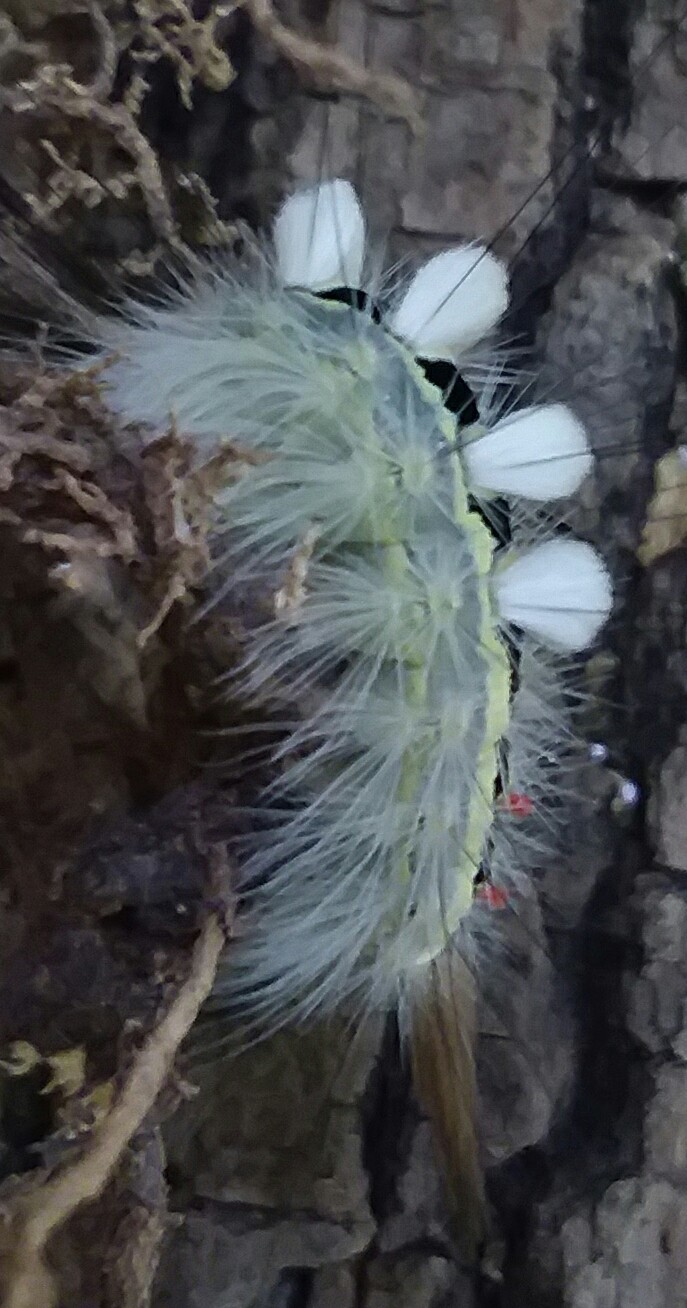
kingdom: Animalia
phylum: Arthropoda
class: Insecta
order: Lepidoptera
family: Erebidae
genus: Orgyia
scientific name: Orgyia leucostigma
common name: White-marked tussock moth
